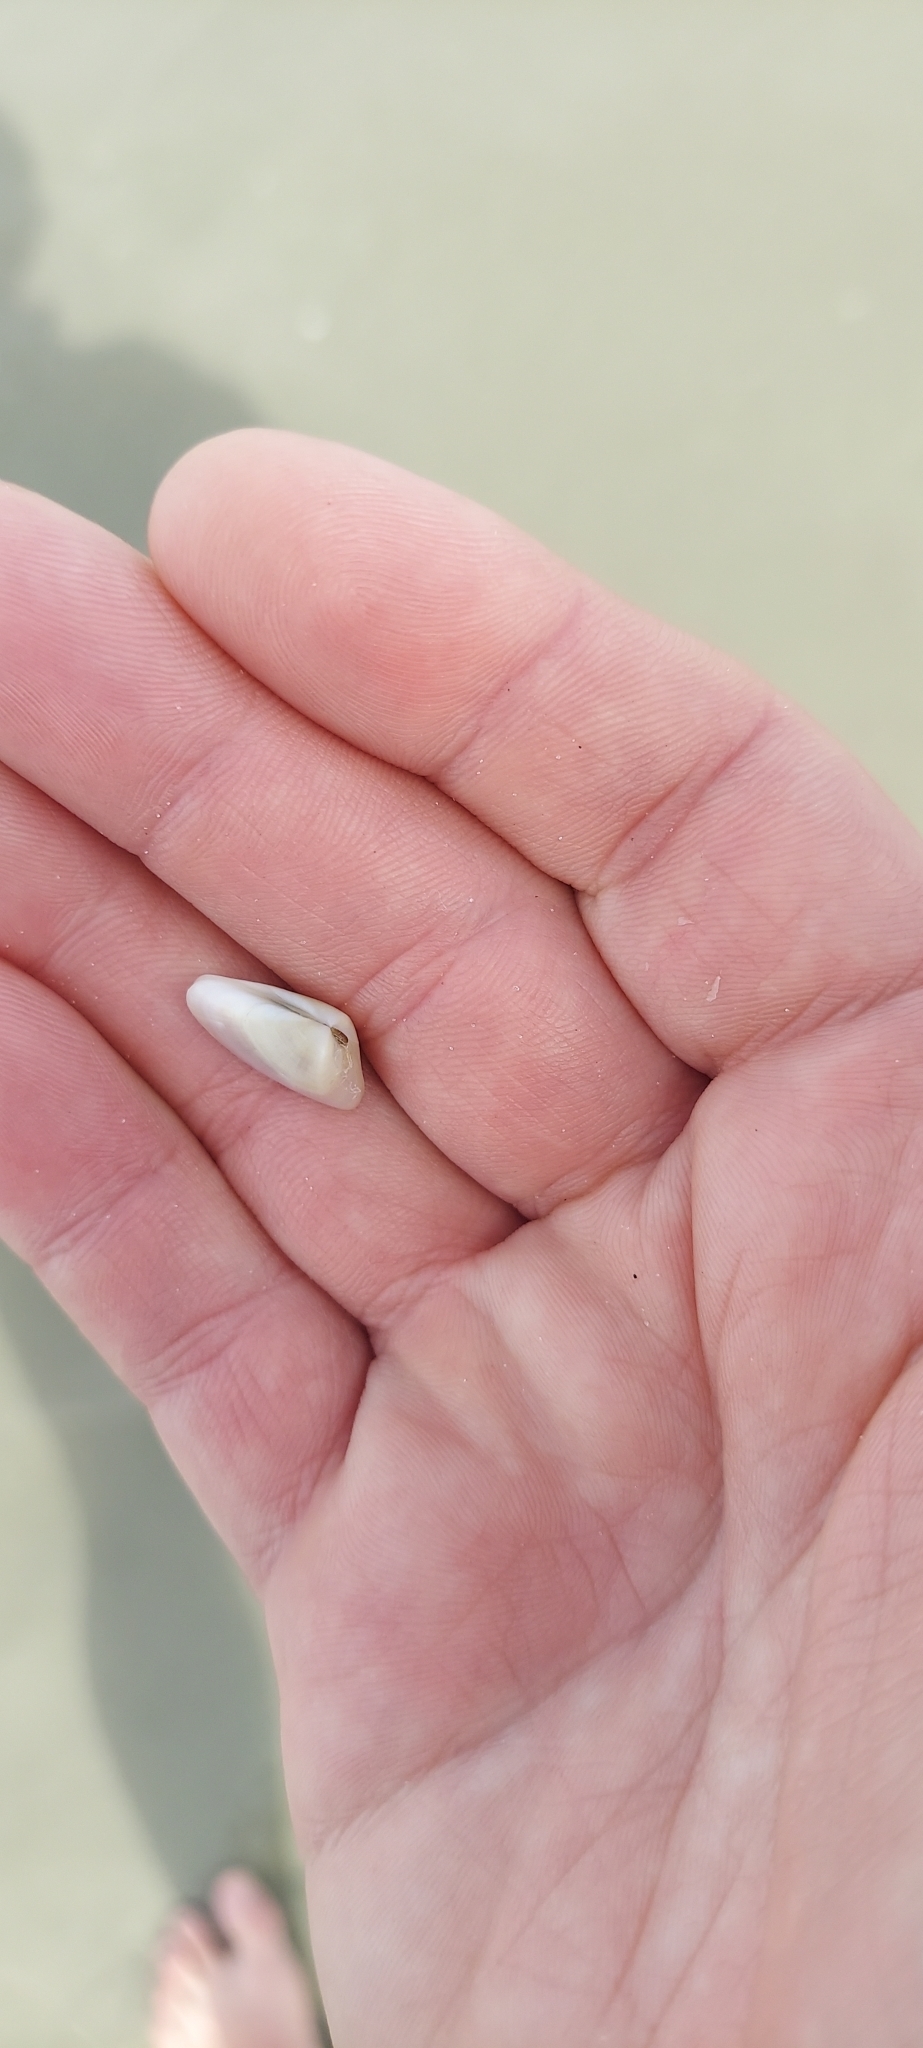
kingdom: Animalia
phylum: Mollusca
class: Bivalvia
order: Cardiida
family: Donacidae
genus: Donax
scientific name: Donax variabilis
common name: Butterfly shell
